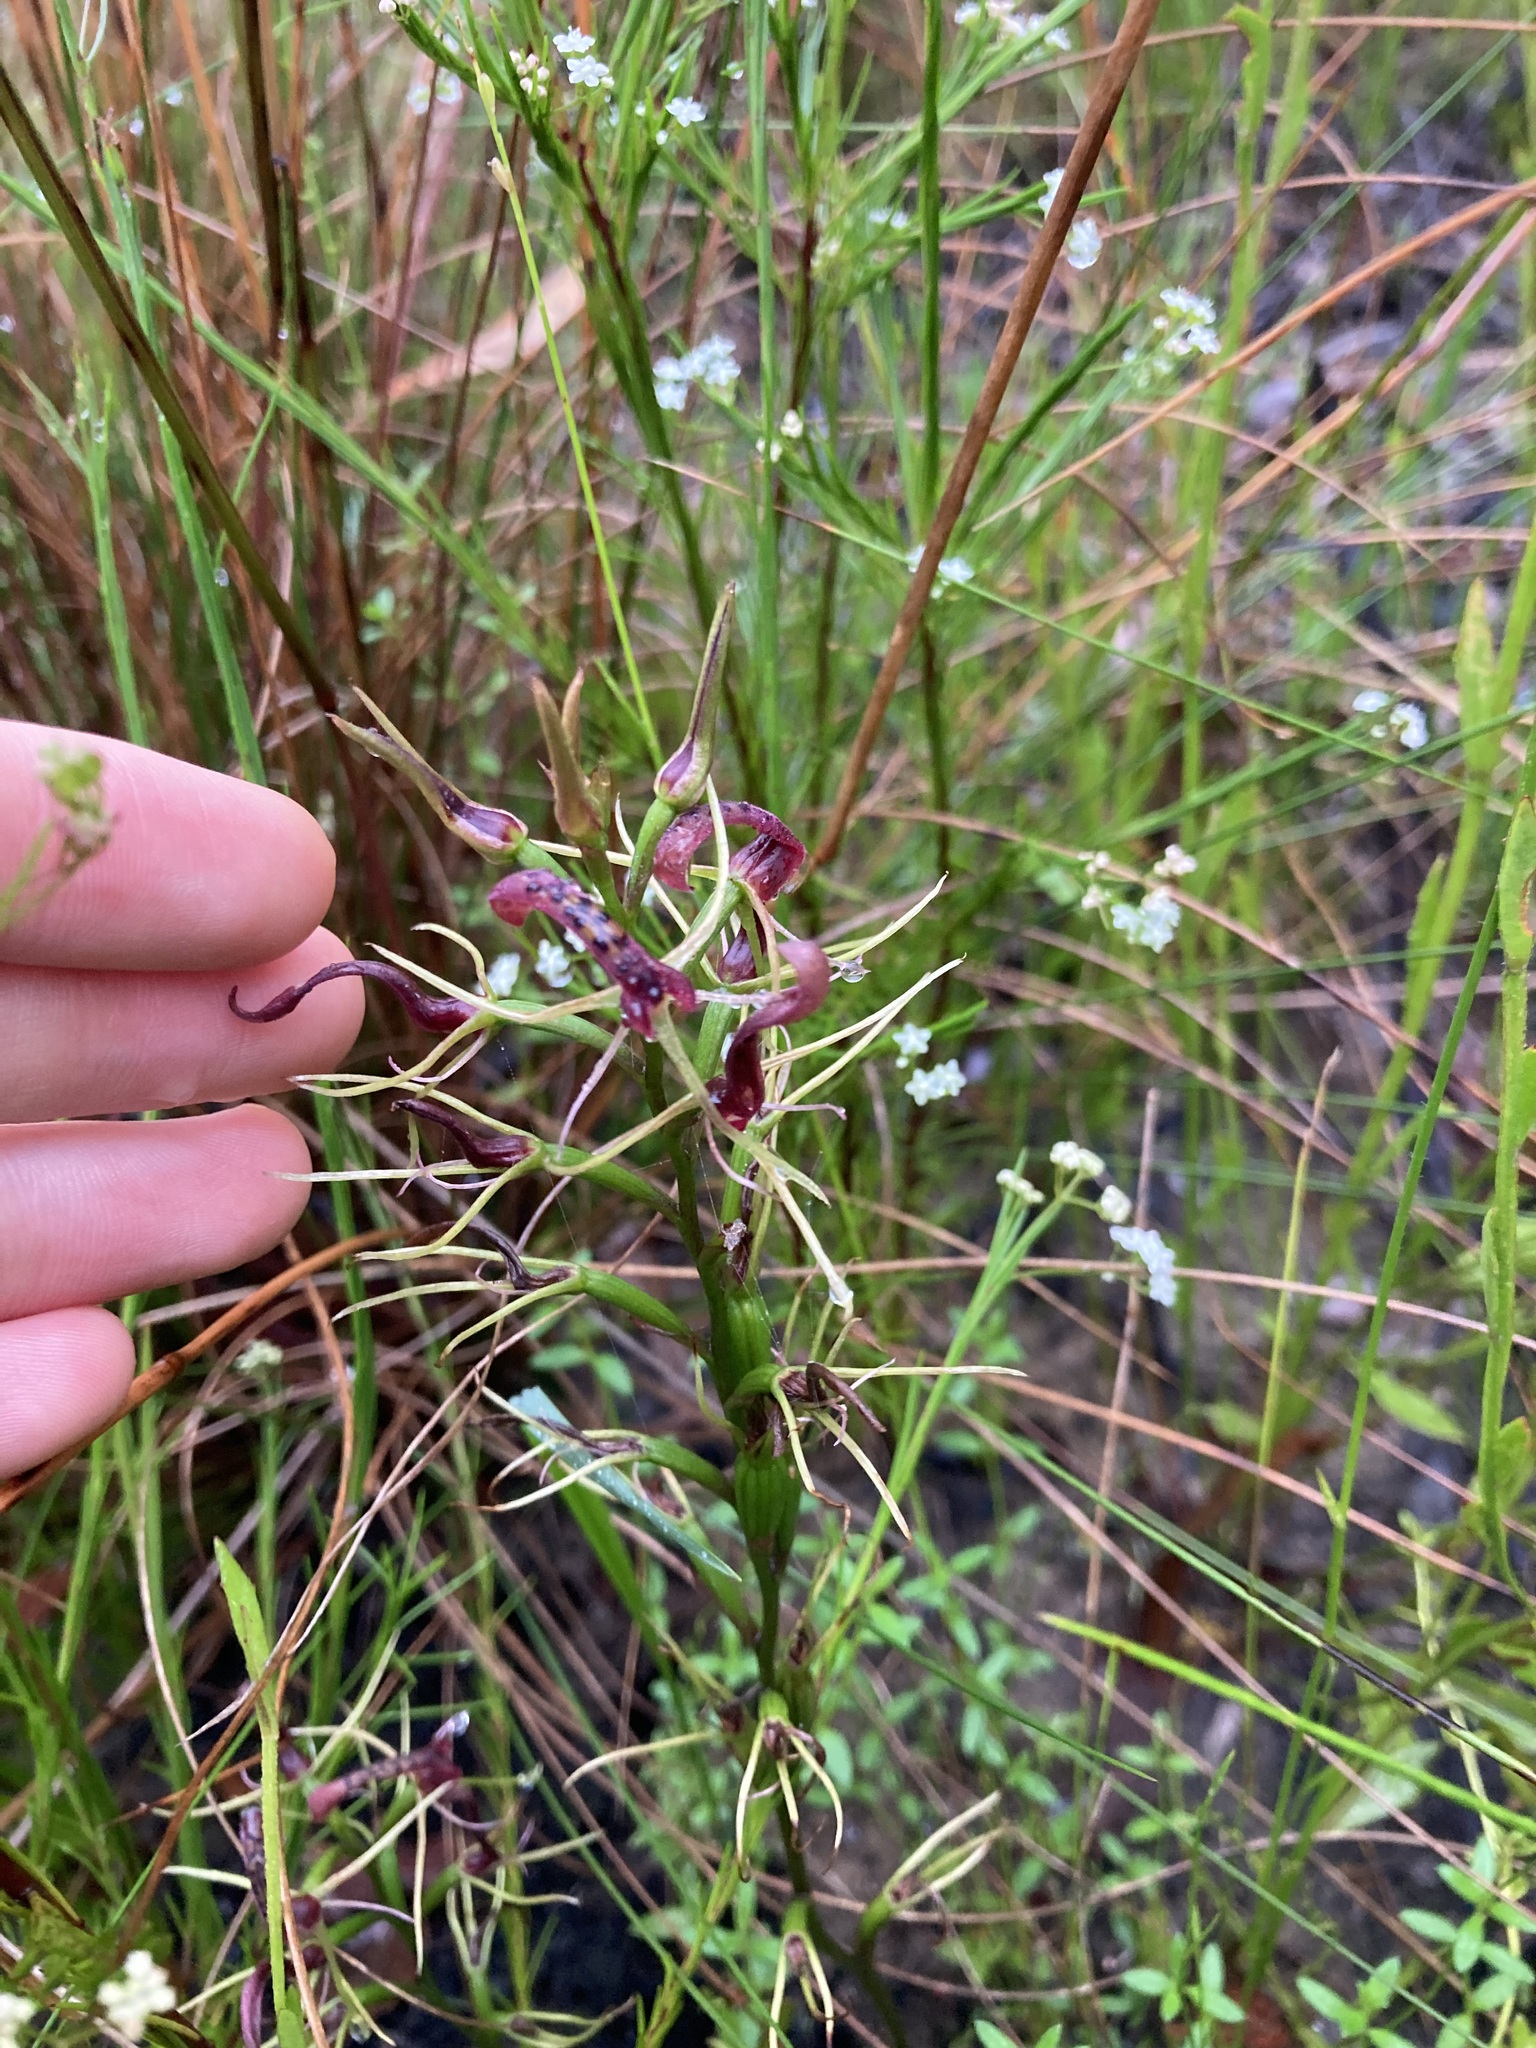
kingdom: Plantae
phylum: Tracheophyta
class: Liliopsida
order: Asparagales
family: Orchidaceae
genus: Cryptostylis
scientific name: Cryptostylis leptochila
